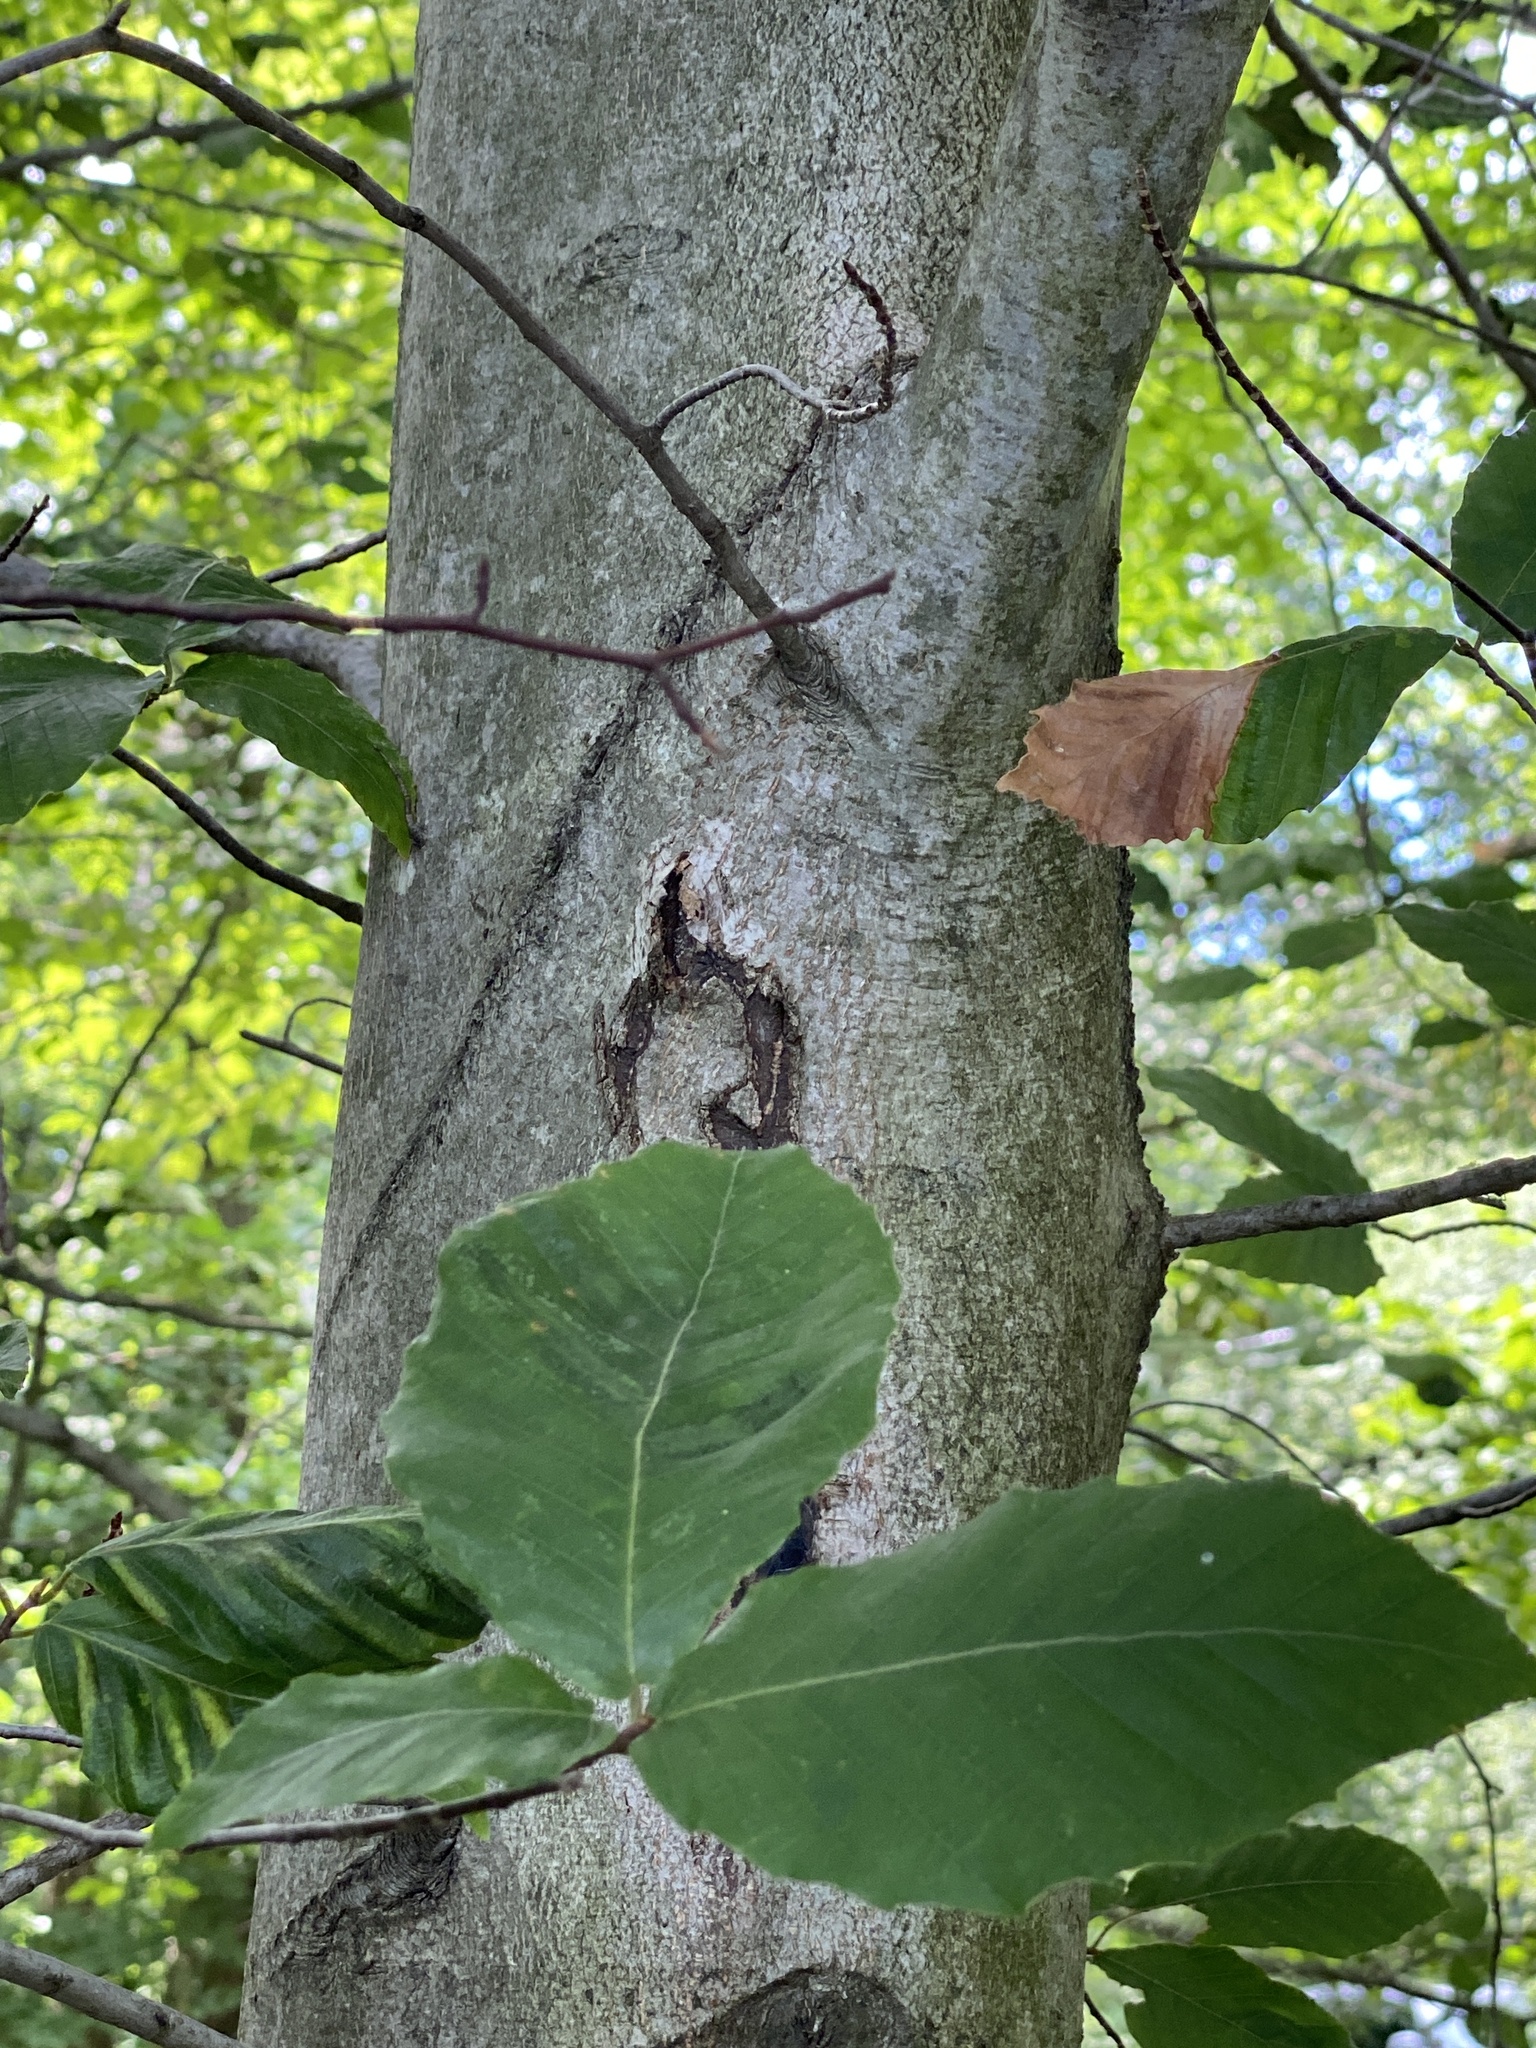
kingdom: Plantae
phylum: Tracheophyta
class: Magnoliopsida
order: Fagales
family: Fagaceae
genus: Fagus
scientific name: Fagus grandifolia
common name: American beech
